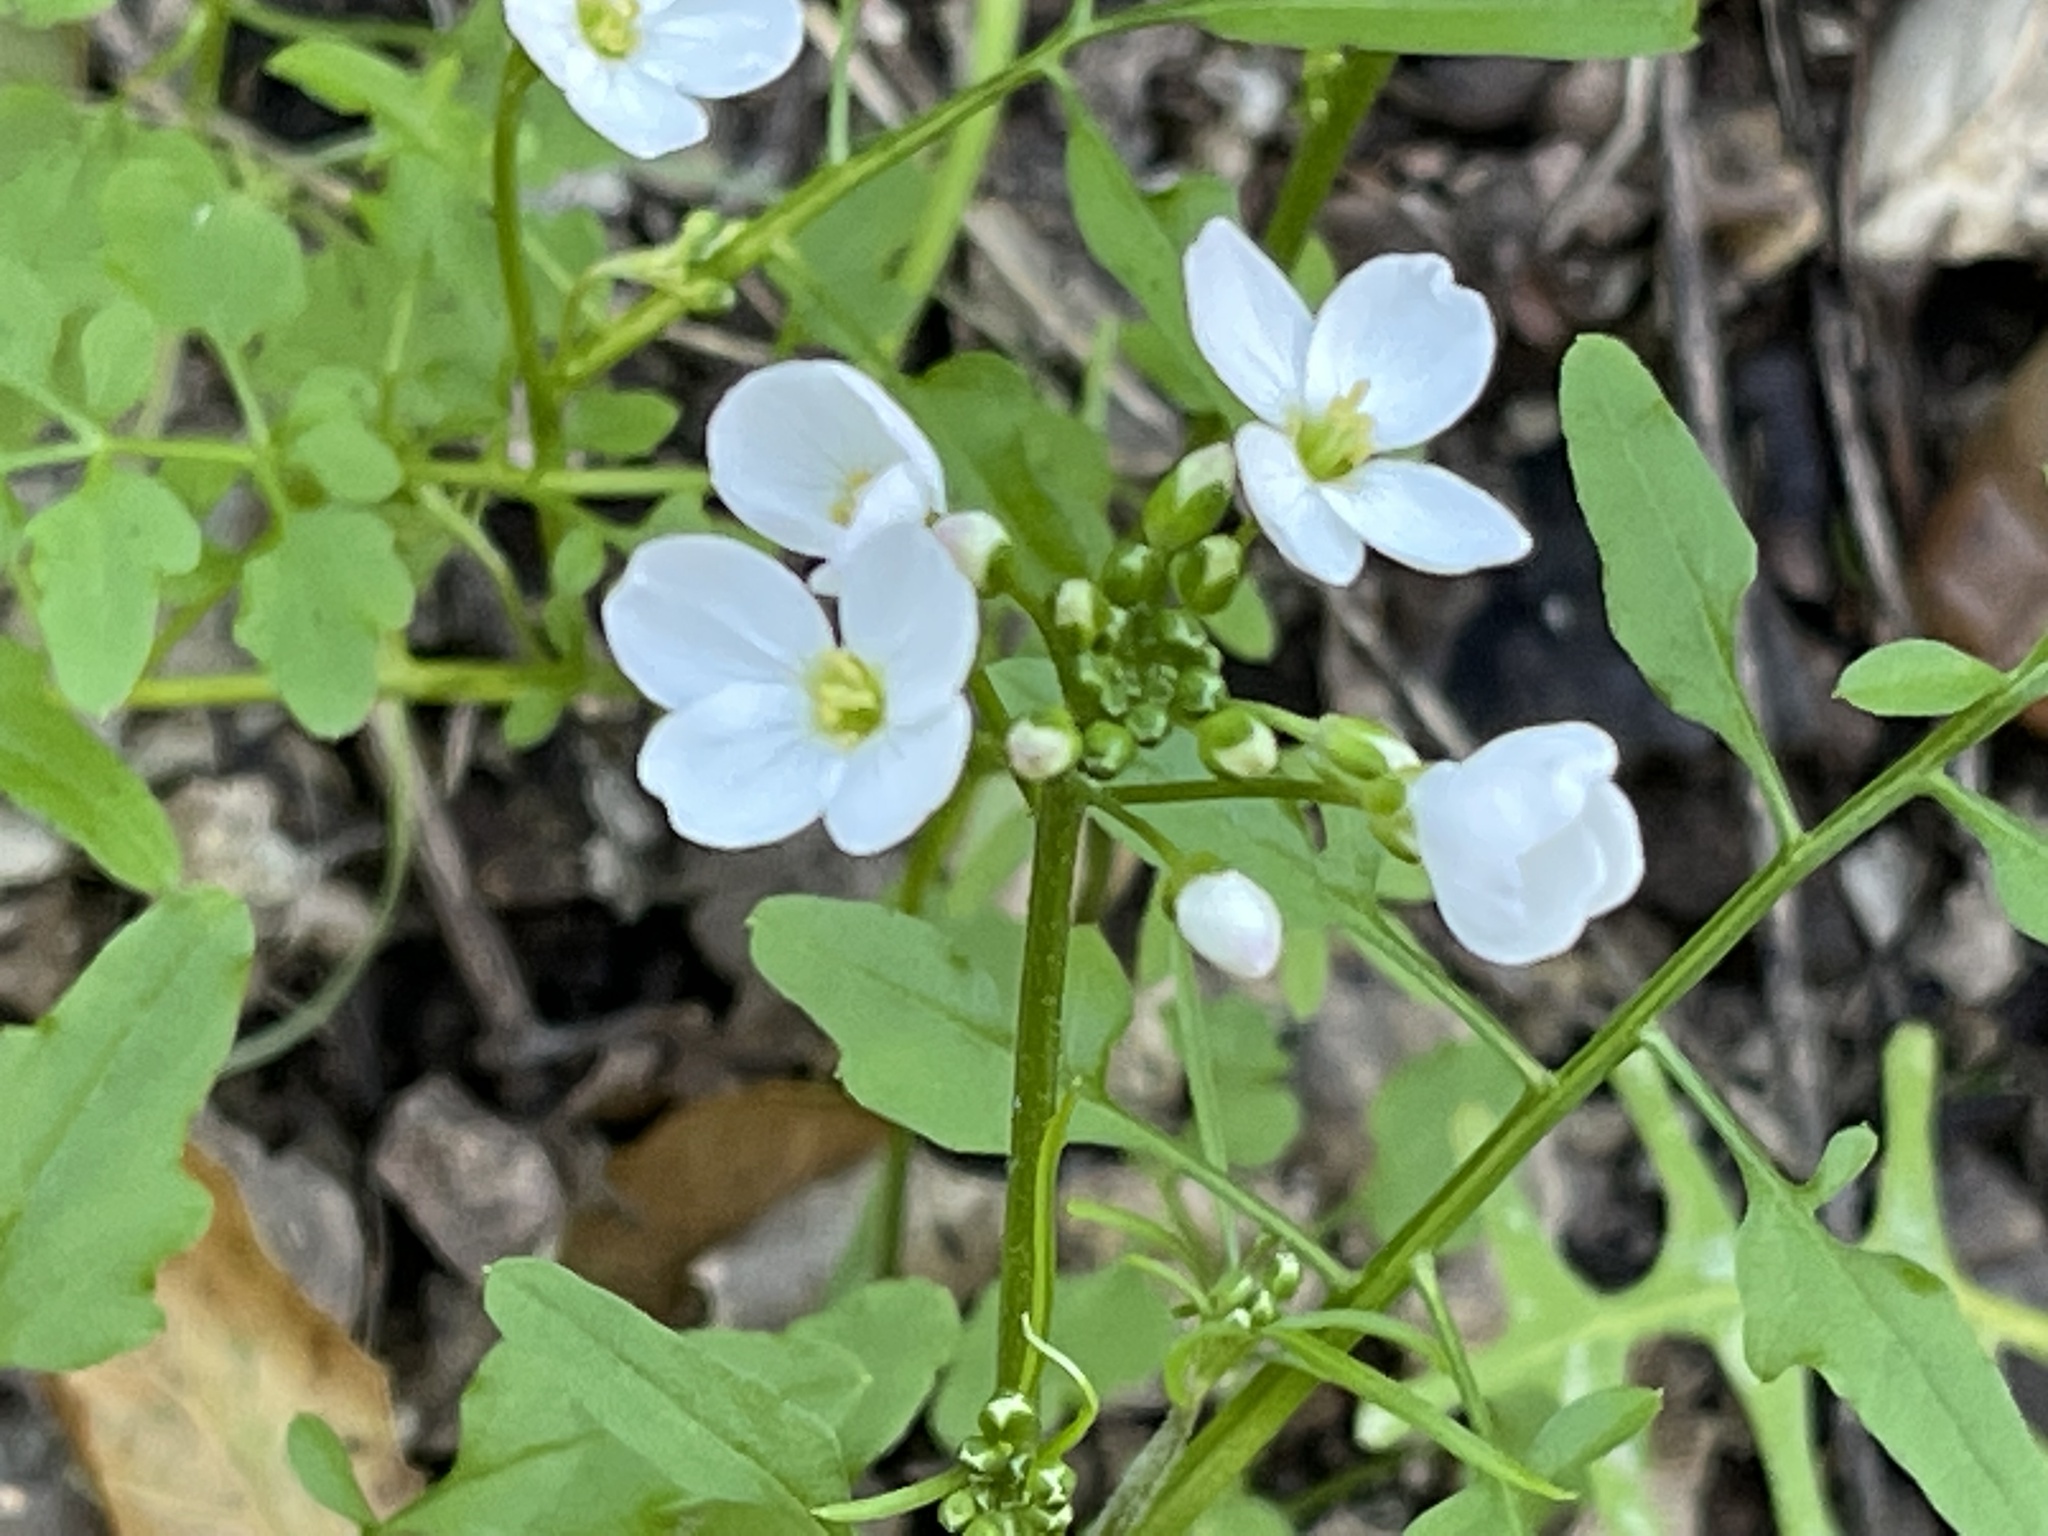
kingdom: Plantae
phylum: Tracheophyta
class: Magnoliopsida
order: Brassicales
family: Brassicaceae
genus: Cardamine
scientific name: Cardamine californica
